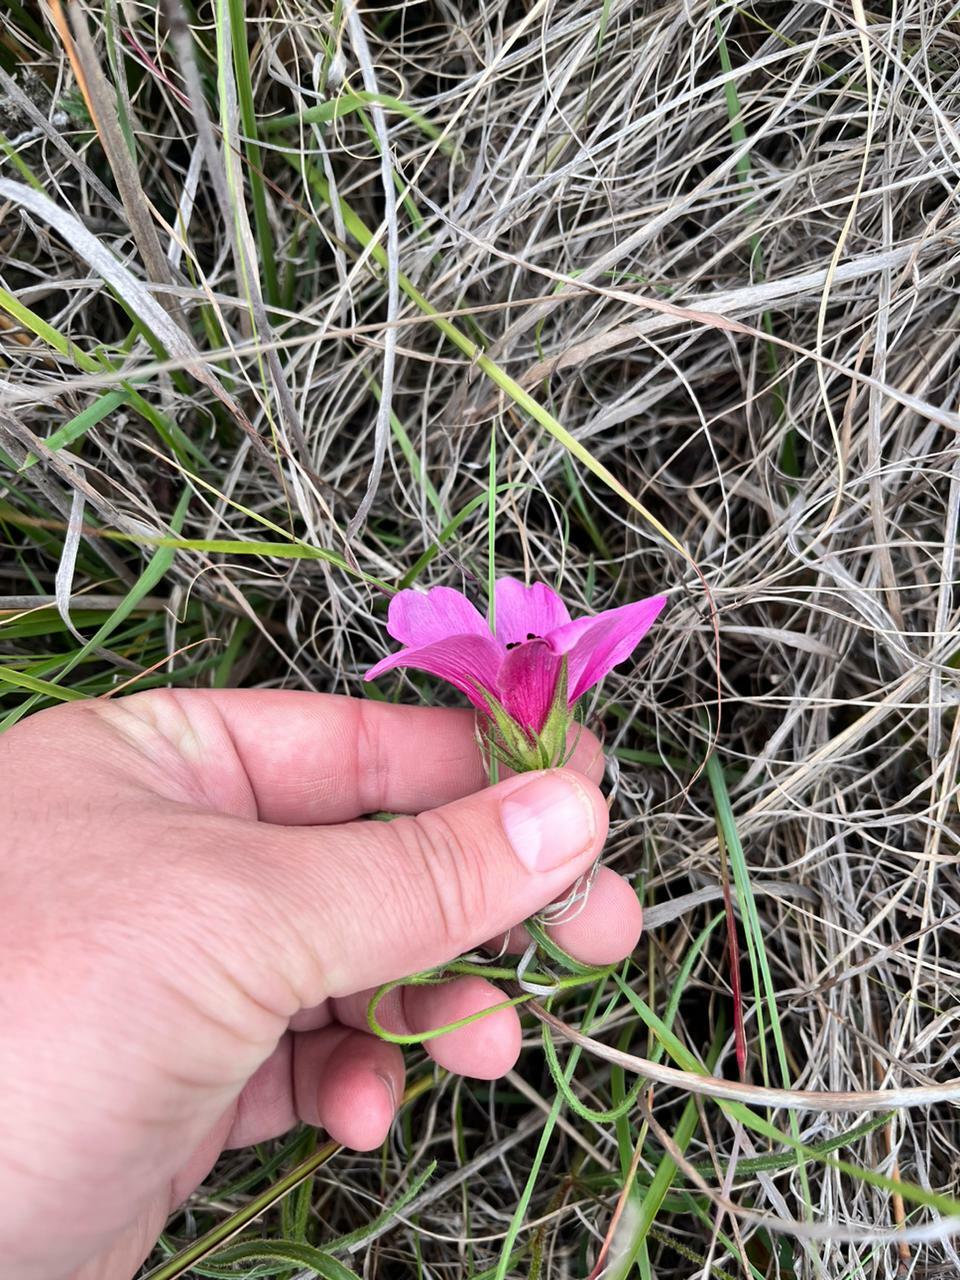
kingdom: Plantae
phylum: Tracheophyta
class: Magnoliopsida
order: Malvales
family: Malvaceae
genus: Hibiscus
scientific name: Hibiscus malacospermus
